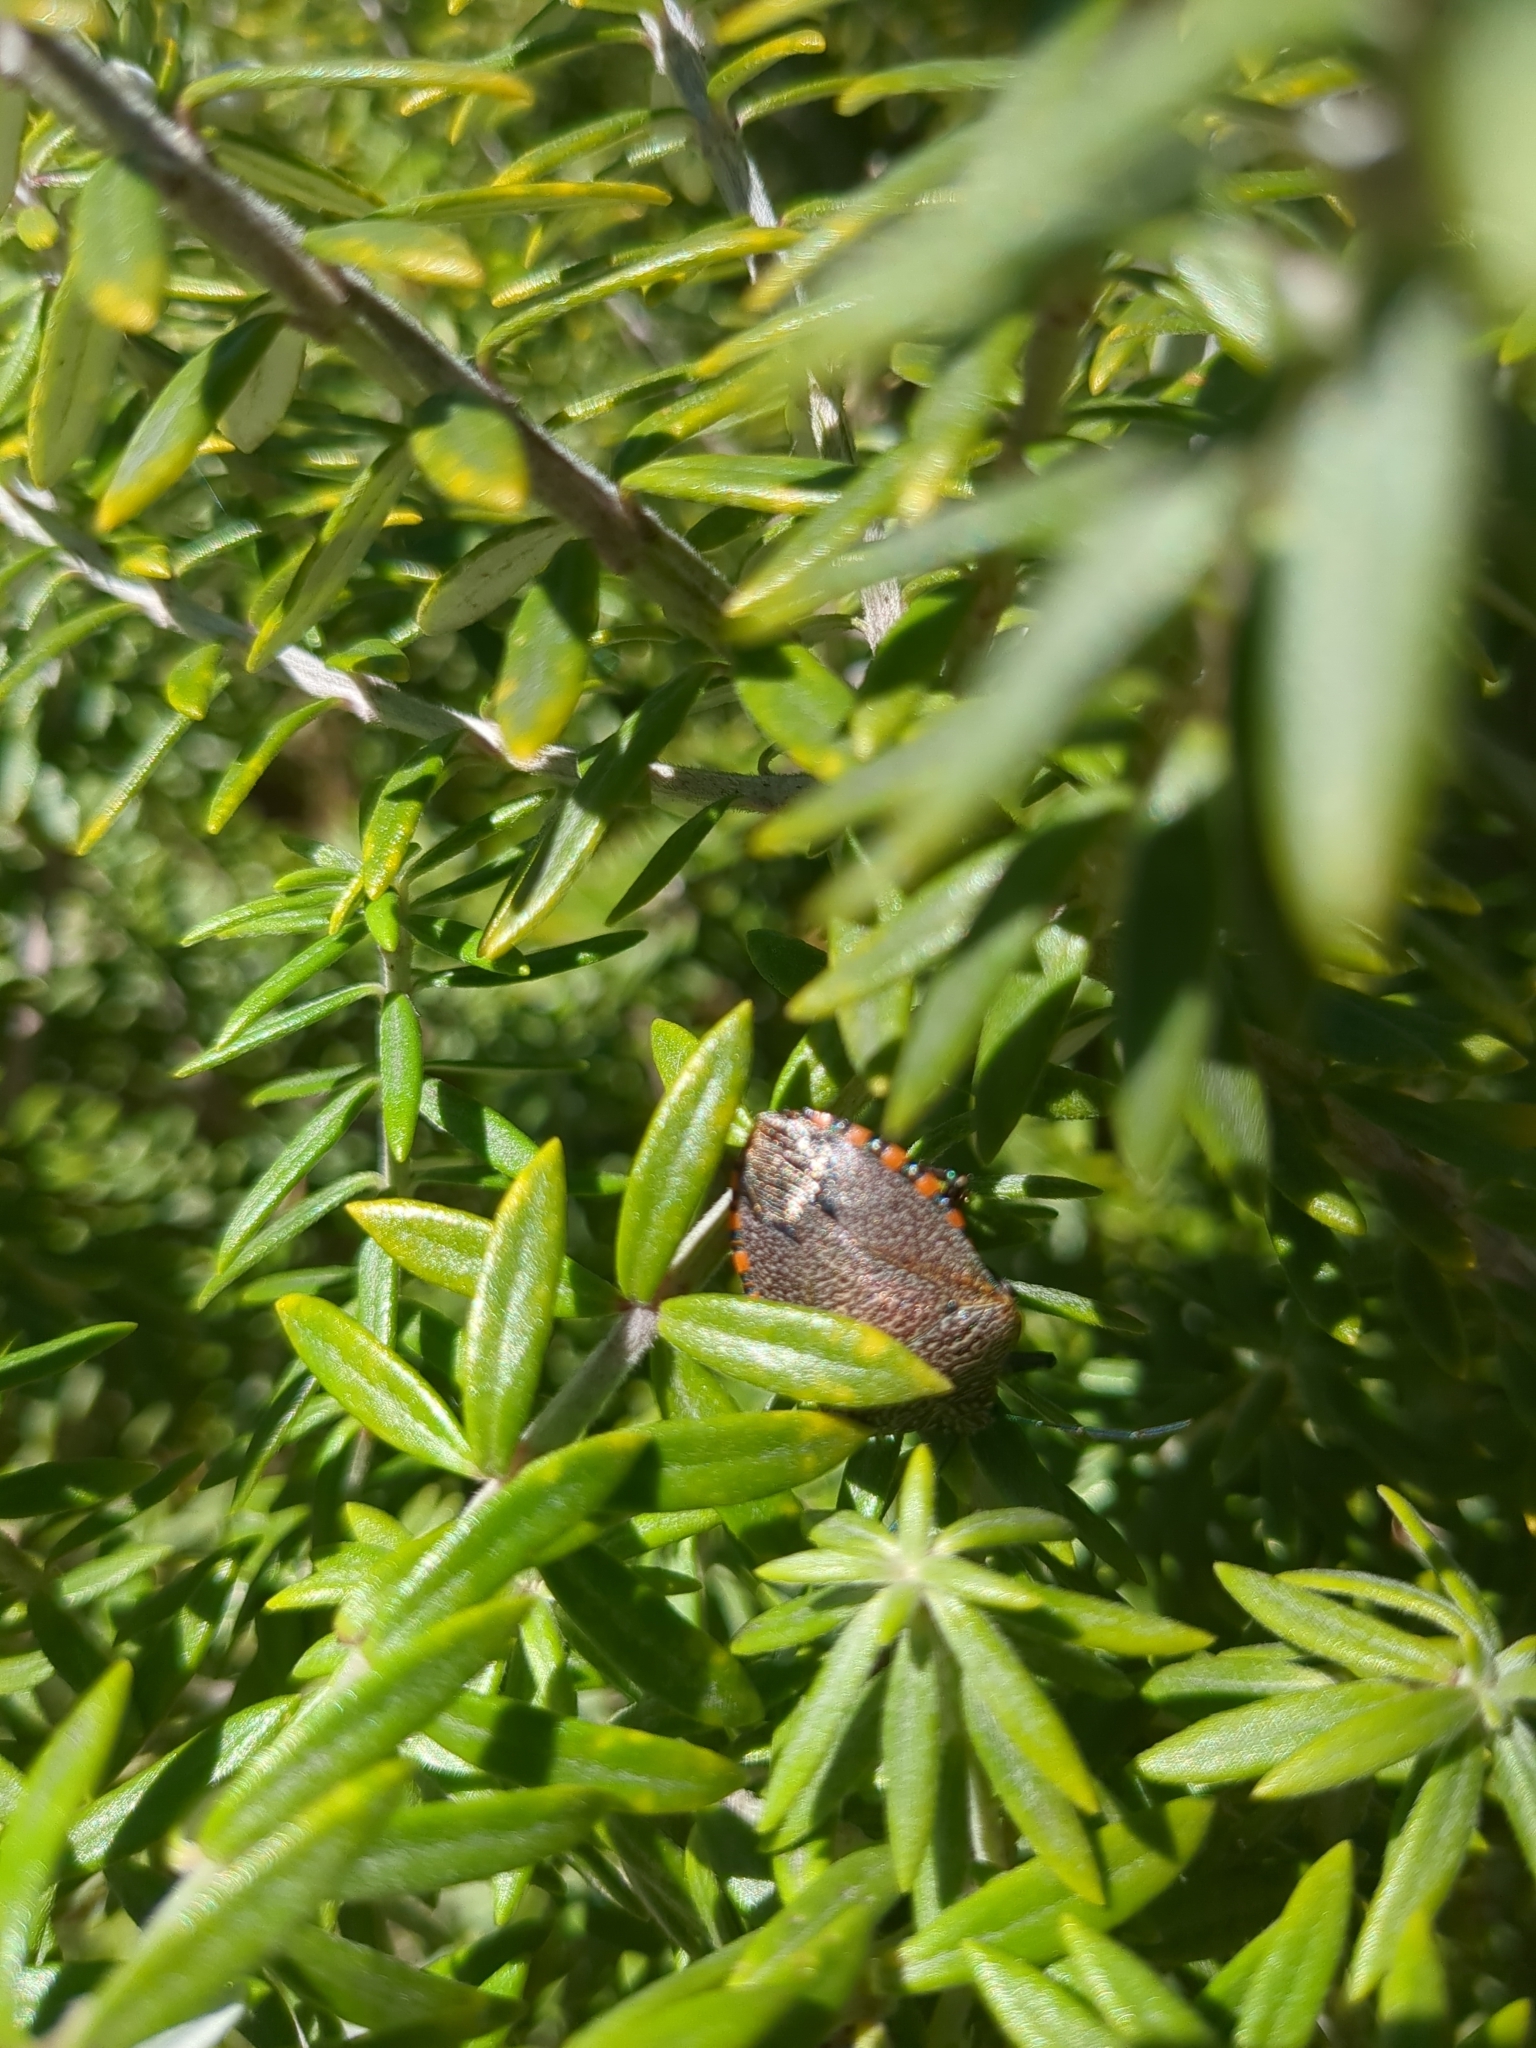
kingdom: Animalia
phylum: Arthropoda
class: Insecta
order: Hemiptera
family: Pentatomidae
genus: Pellaea
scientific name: Pellaea stictica
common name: Stink bug
